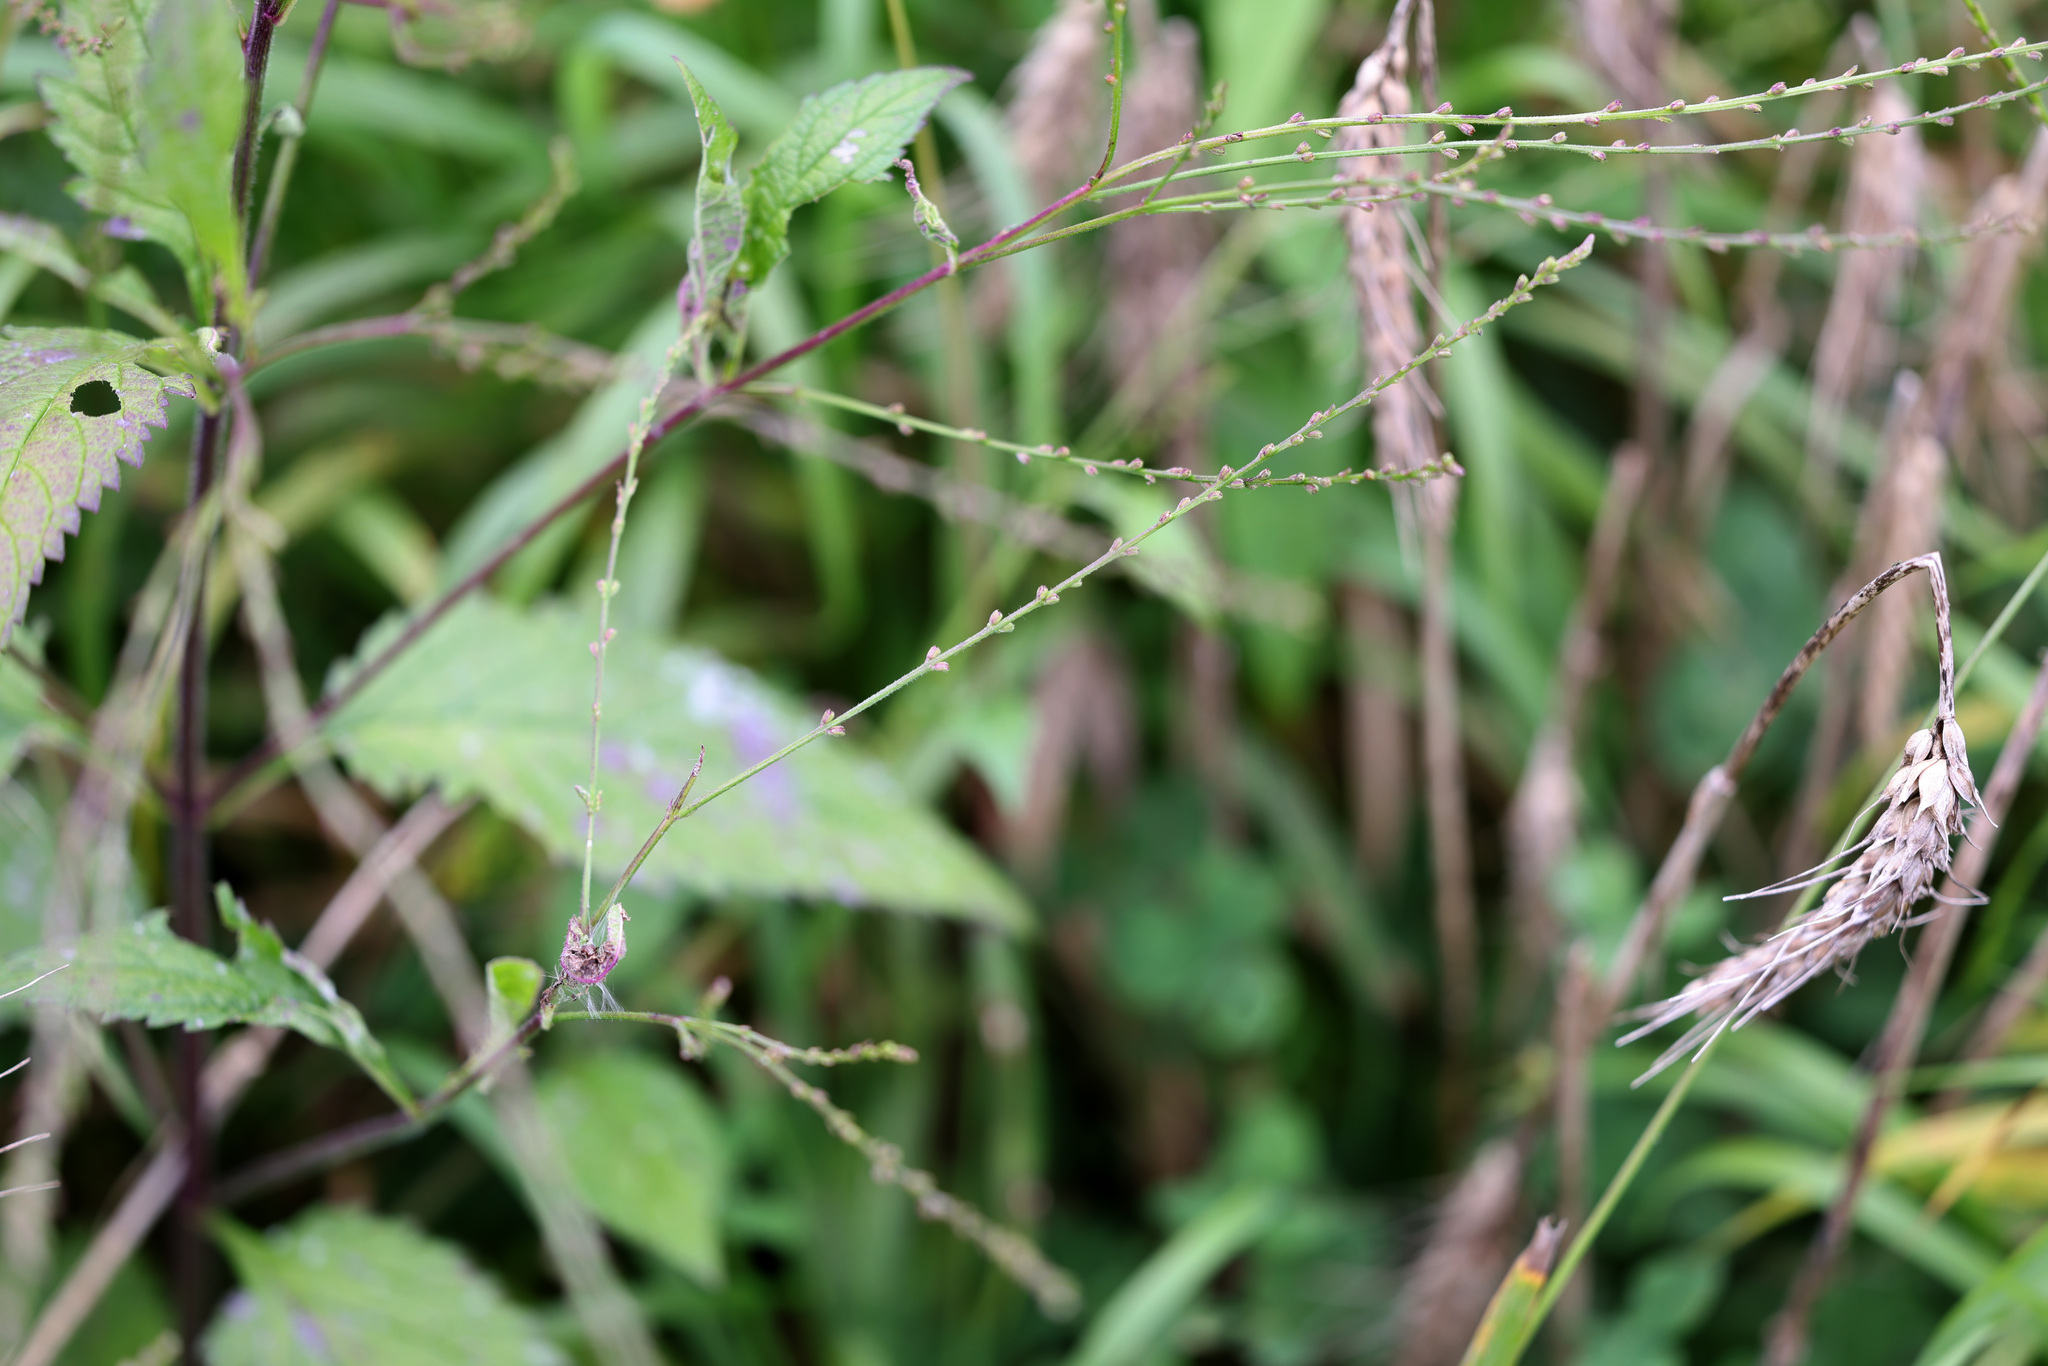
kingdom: Plantae
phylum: Tracheophyta
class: Magnoliopsida
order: Lamiales
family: Verbenaceae
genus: Verbena
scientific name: Verbena urticifolia
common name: Nettle-leaved vervain
